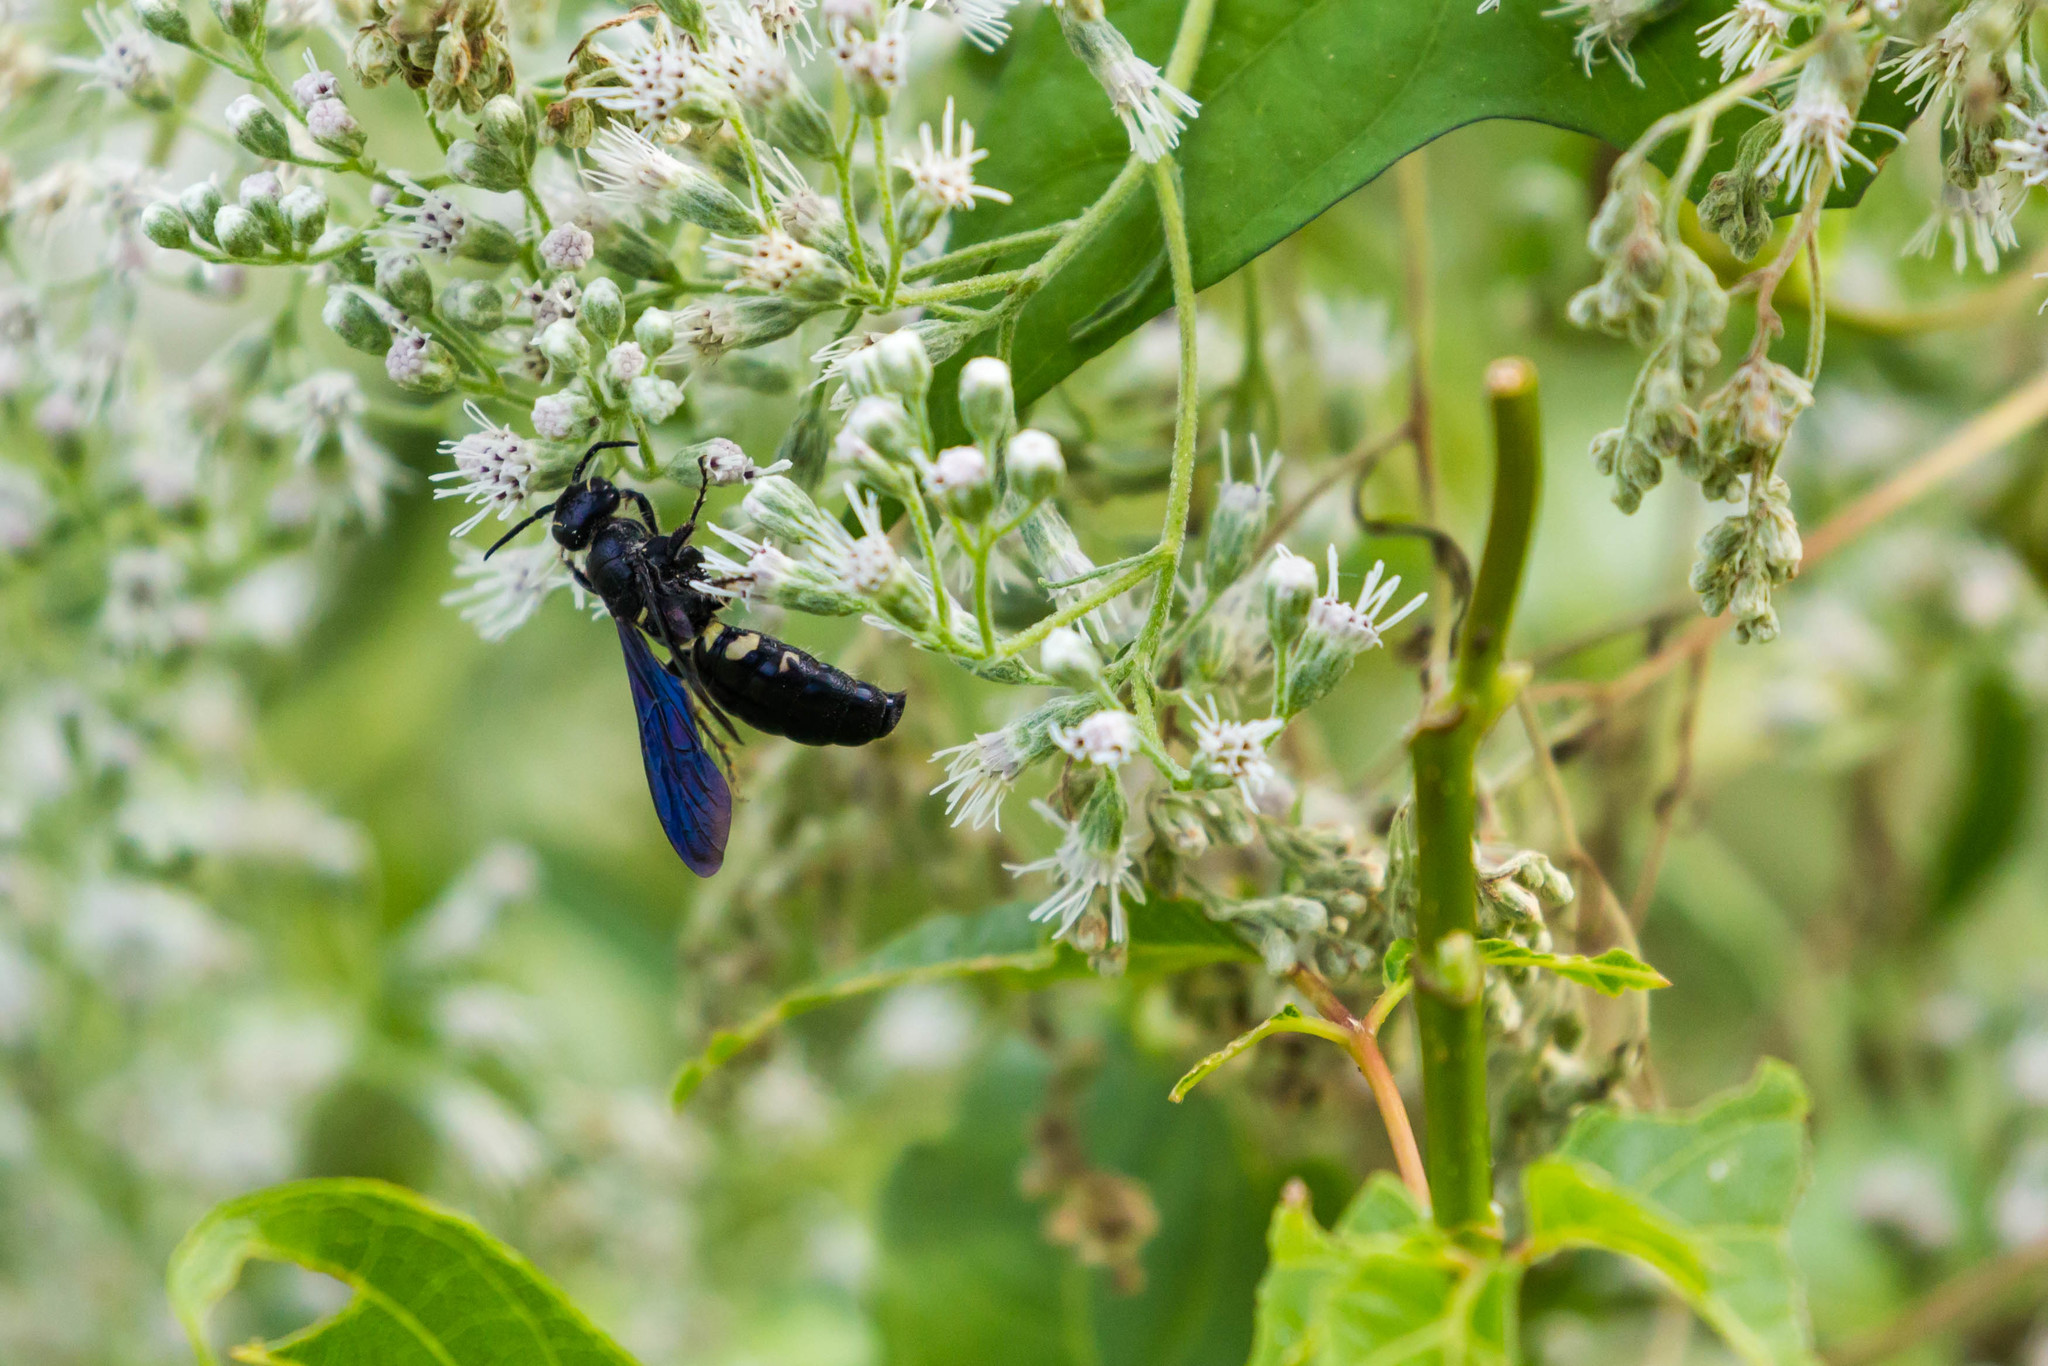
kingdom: Animalia
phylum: Arthropoda
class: Insecta
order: Hymenoptera
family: Tiphiidae
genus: Myzinum
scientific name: Myzinum obscurum
